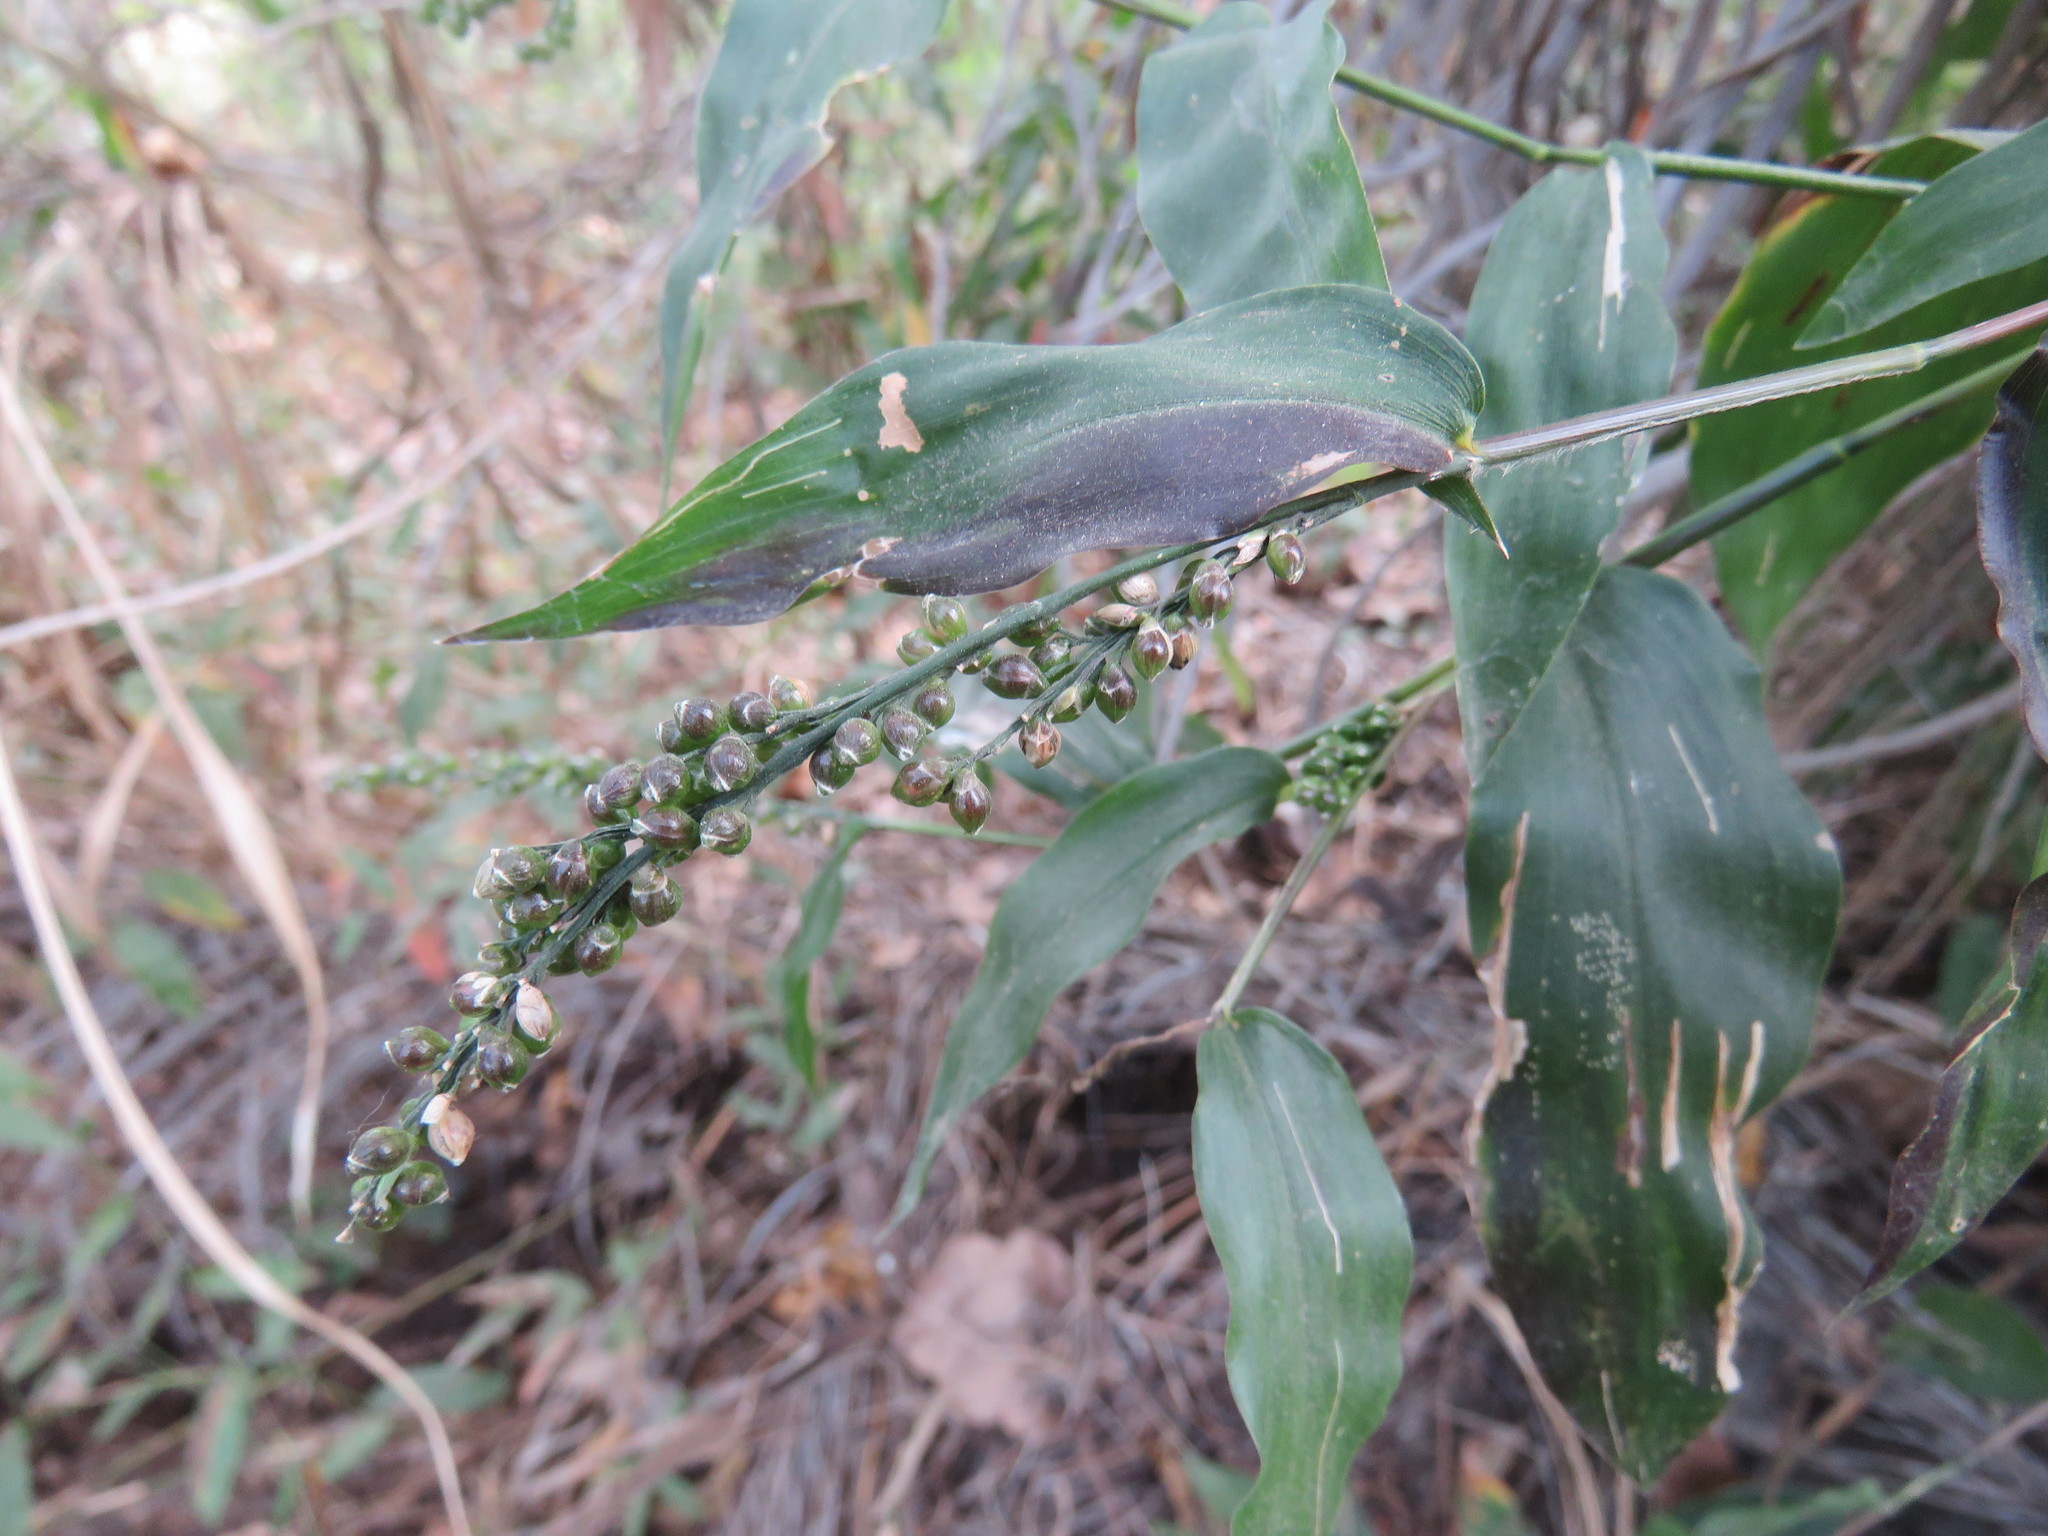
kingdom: Plantae
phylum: Tracheophyta
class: Liliopsida
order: Poales
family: Poaceae
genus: Lasiacis
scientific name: Lasiacis divaricata
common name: Smallcane
